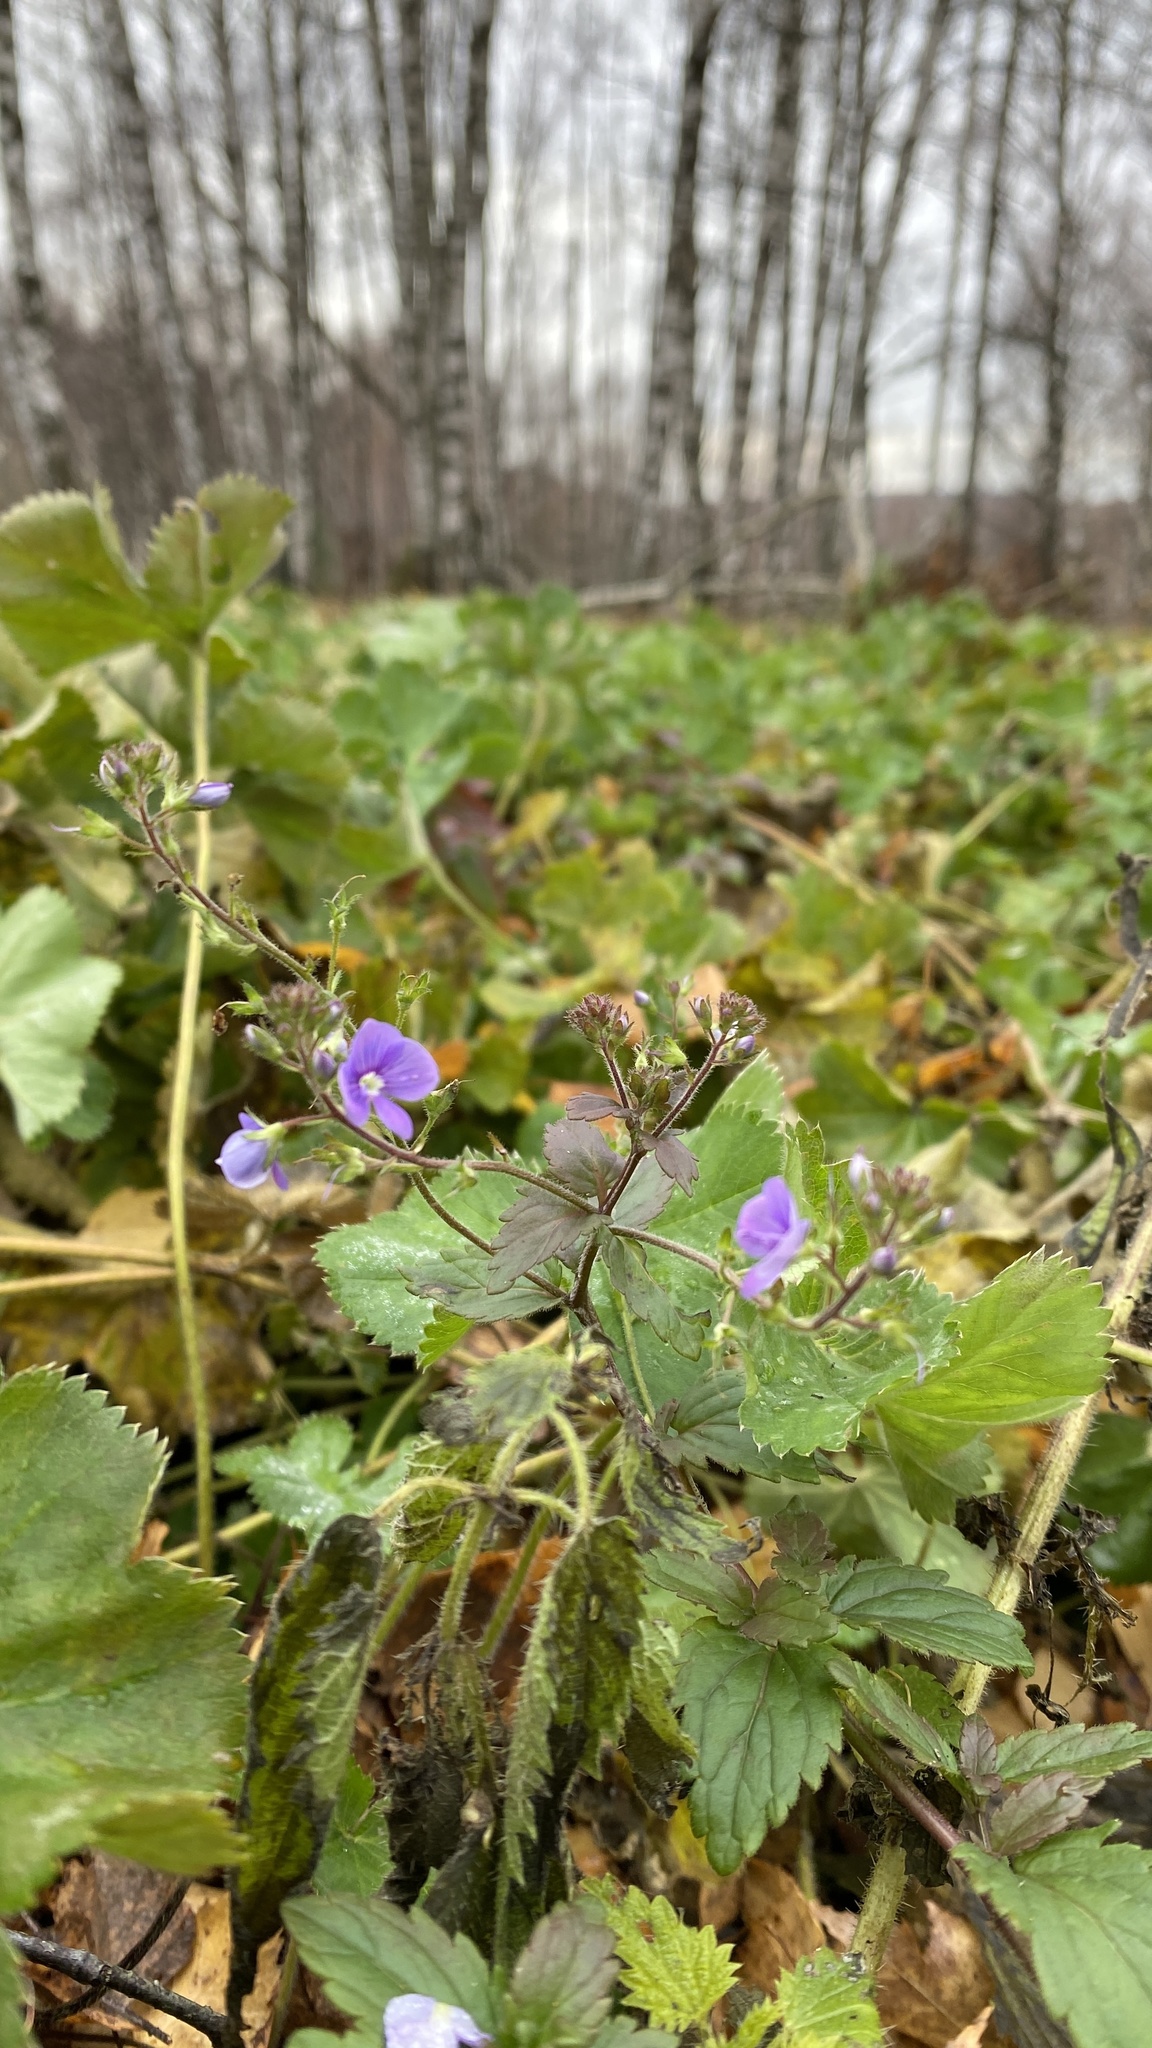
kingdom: Plantae
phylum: Tracheophyta
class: Magnoliopsida
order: Lamiales
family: Plantaginaceae
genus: Veronica
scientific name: Veronica chamaedrys
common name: Germander speedwell
